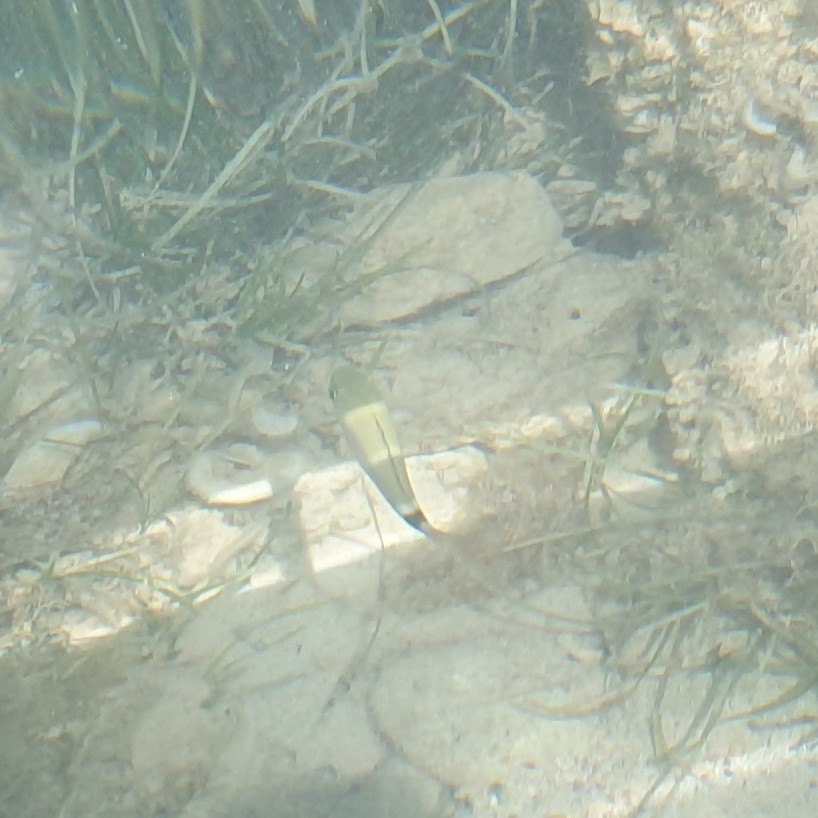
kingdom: Animalia
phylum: Chordata
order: Perciformes
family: Sparidae
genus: Oblada
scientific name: Oblada melanura
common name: Saddled seabream
